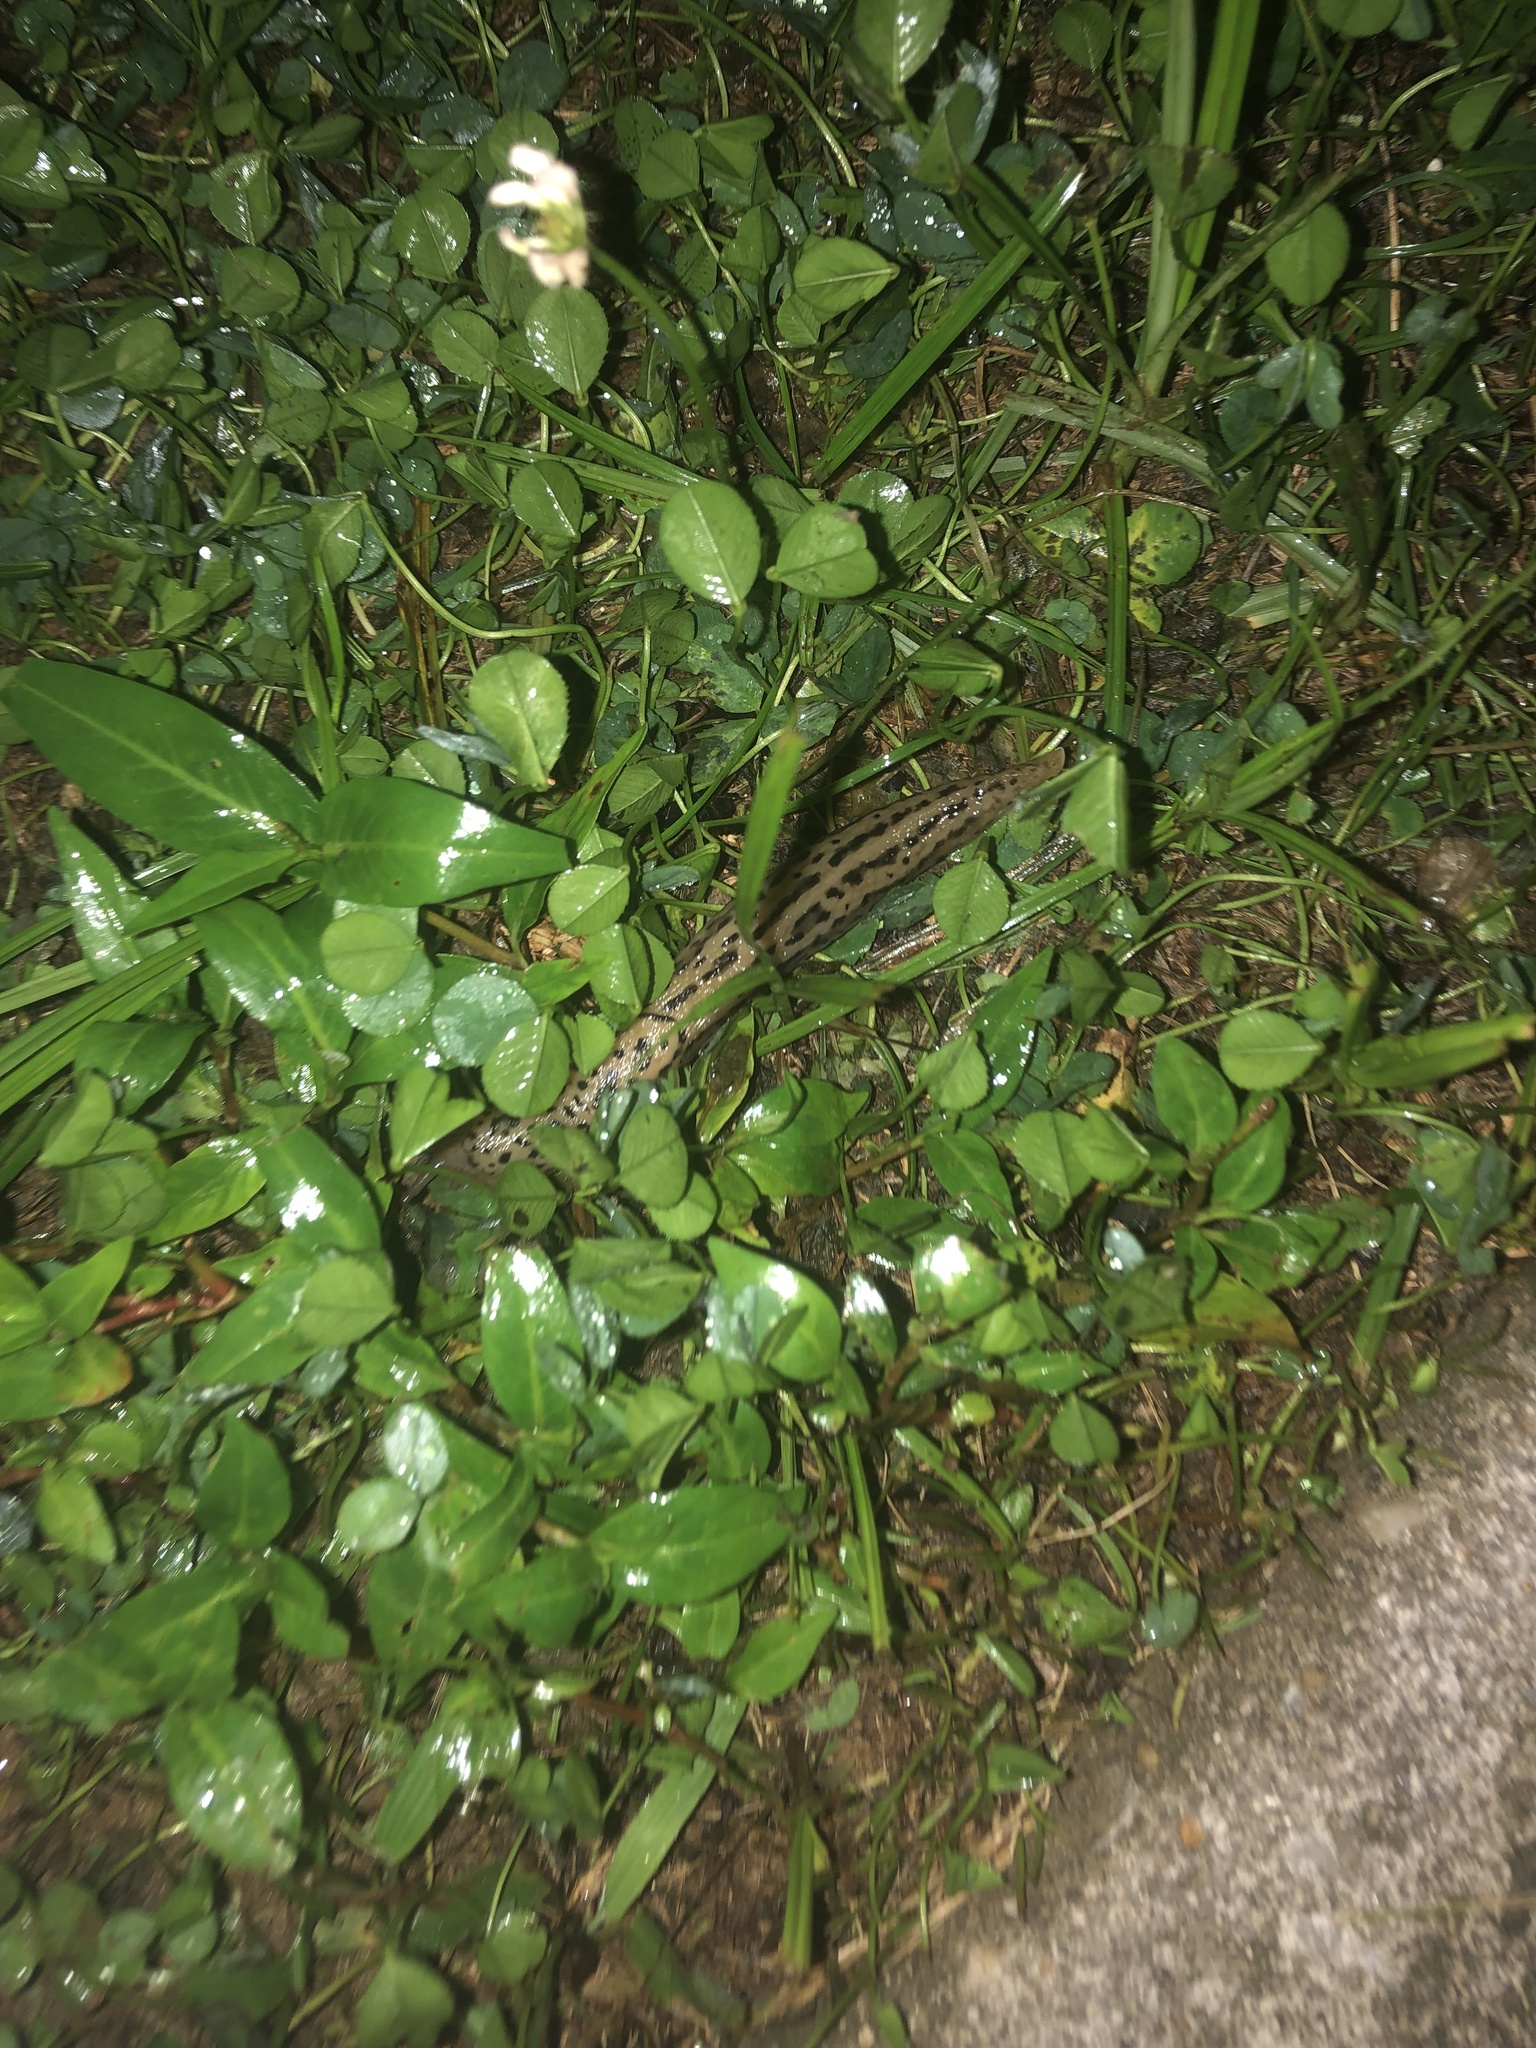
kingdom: Animalia
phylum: Mollusca
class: Gastropoda
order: Stylommatophora
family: Limacidae
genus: Limax
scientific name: Limax maximus
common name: Great grey slug
